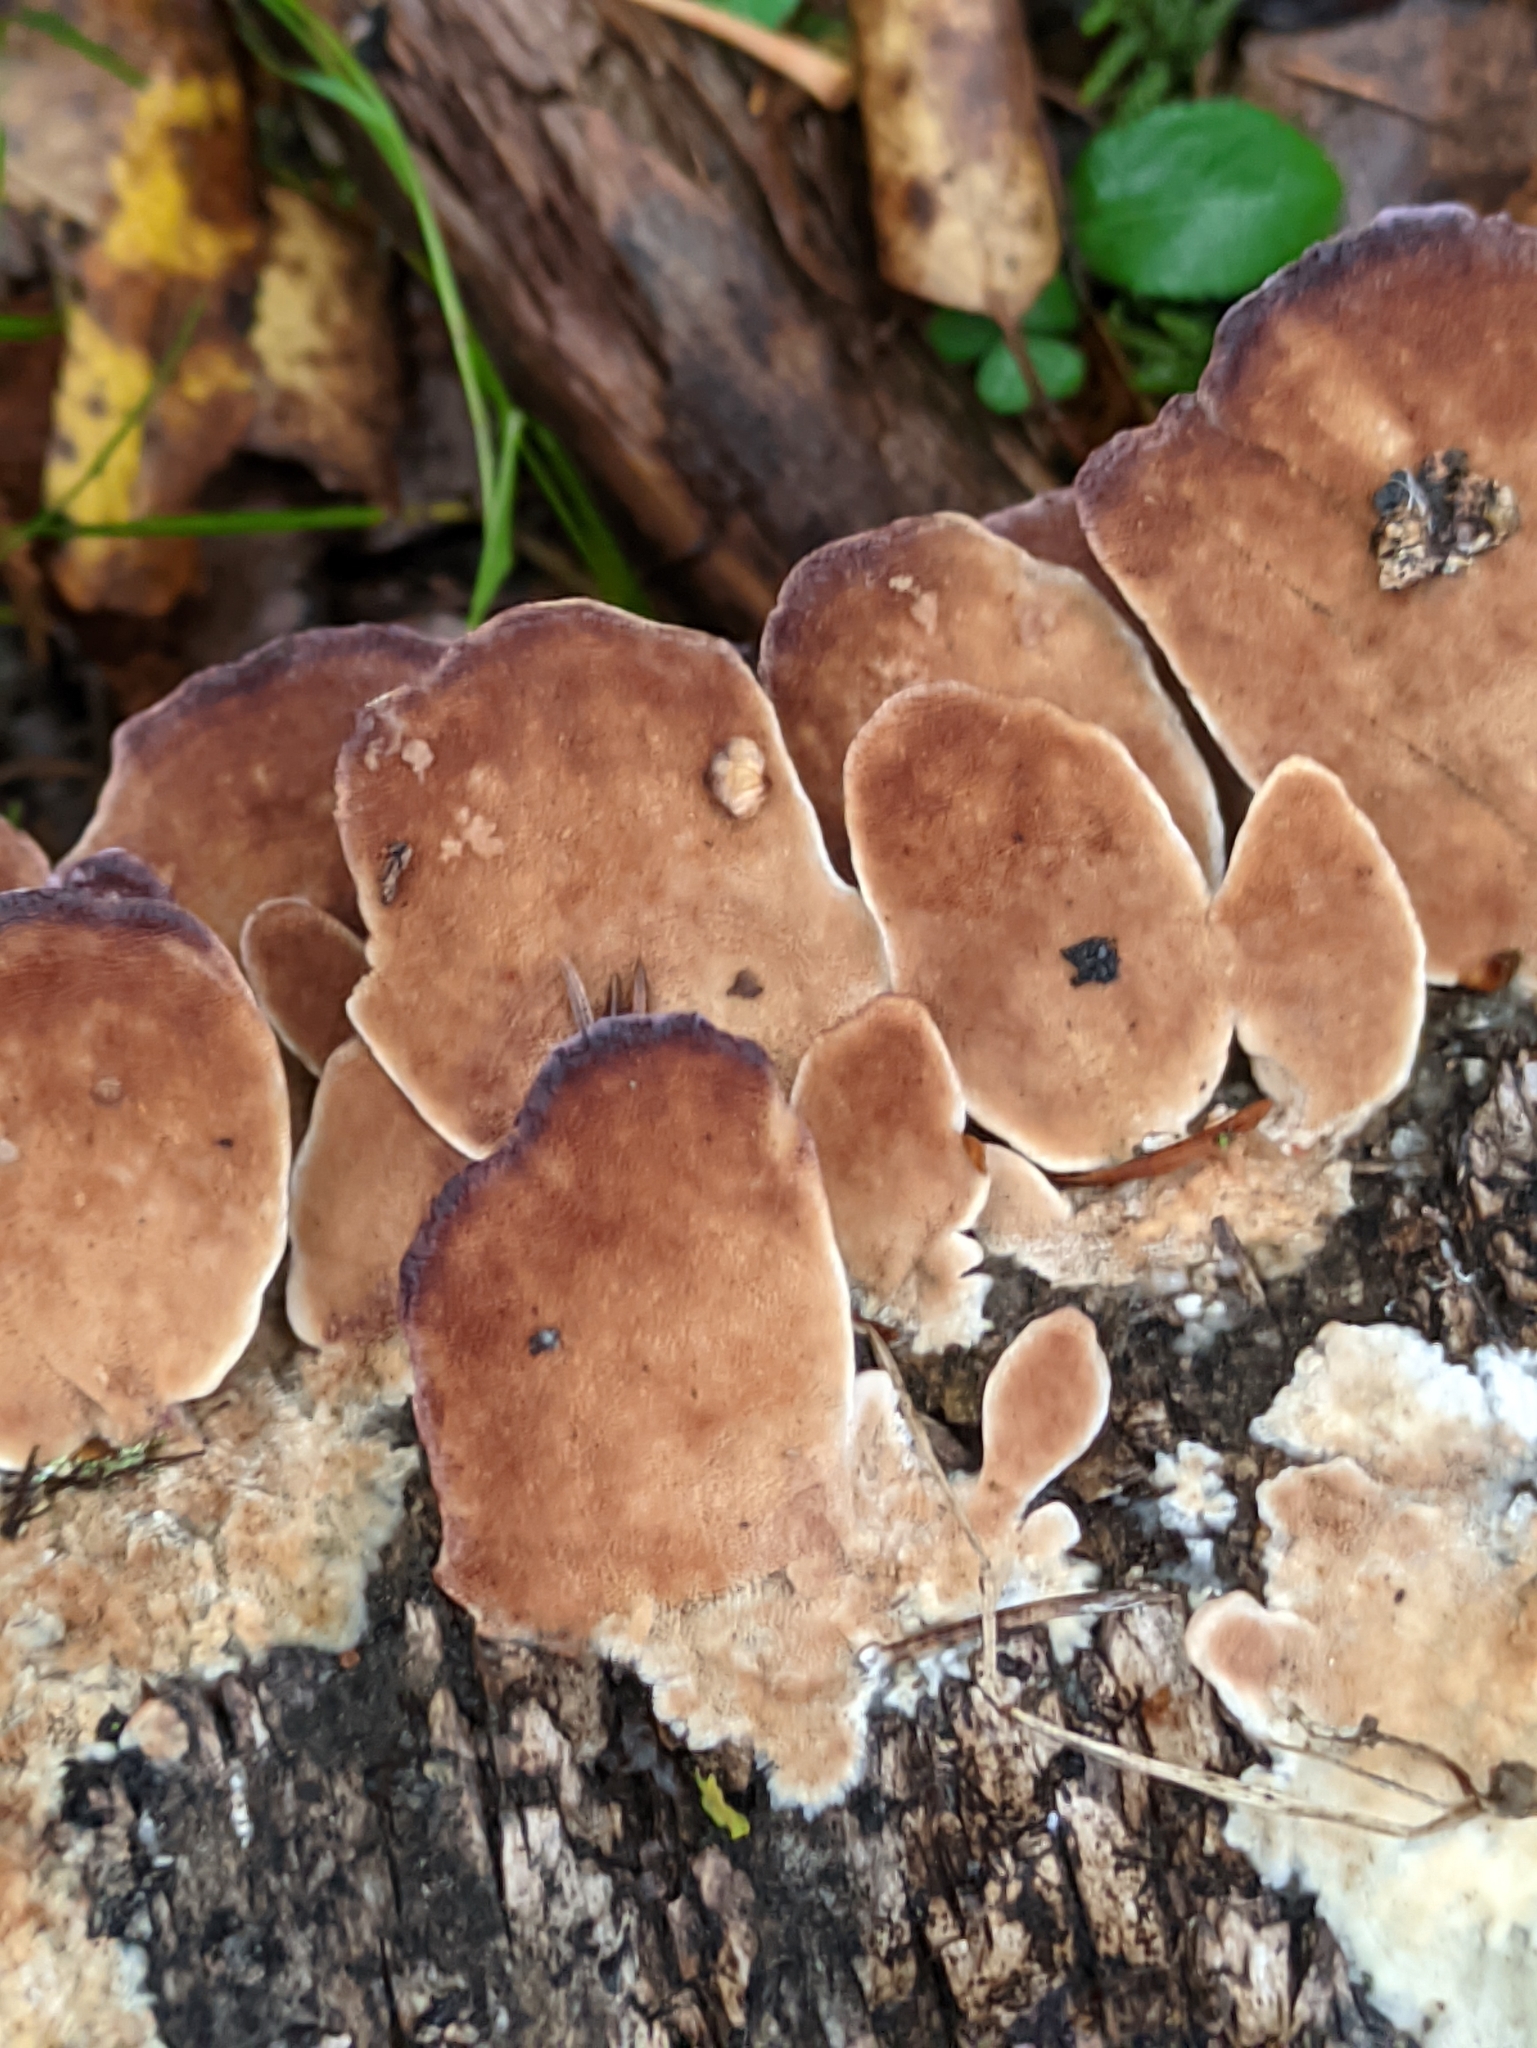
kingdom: Fungi
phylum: Basidiomycota
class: Agaricomycetes
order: Hymenochaetales
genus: Trichaptum
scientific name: Trichaptum biforme
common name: Violet-toothed polypore
